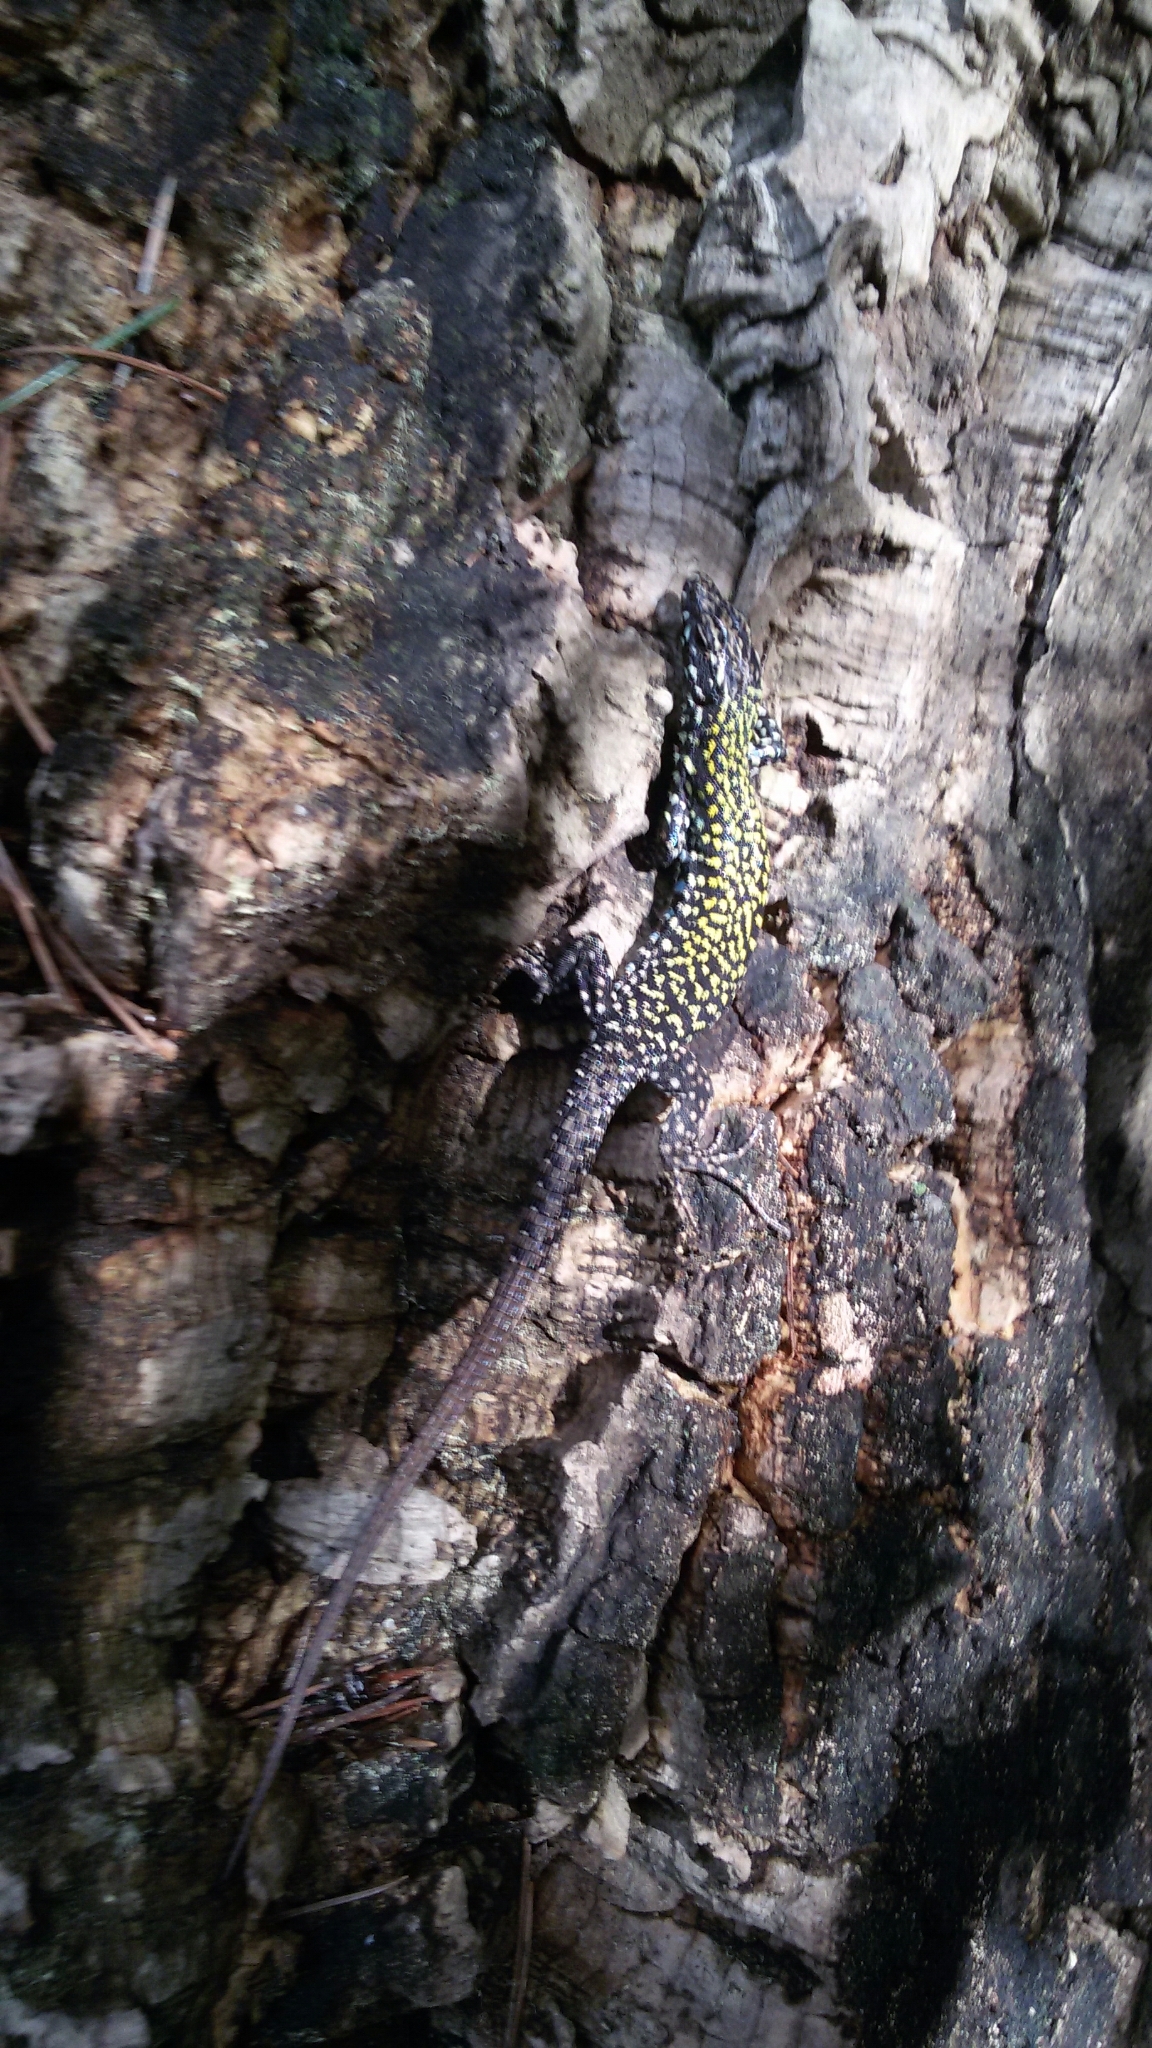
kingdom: Animalia
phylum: Chordata
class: Squamata
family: Lacertidae
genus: Podarcis
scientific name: Podarcis muralis
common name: Common wall lizard
